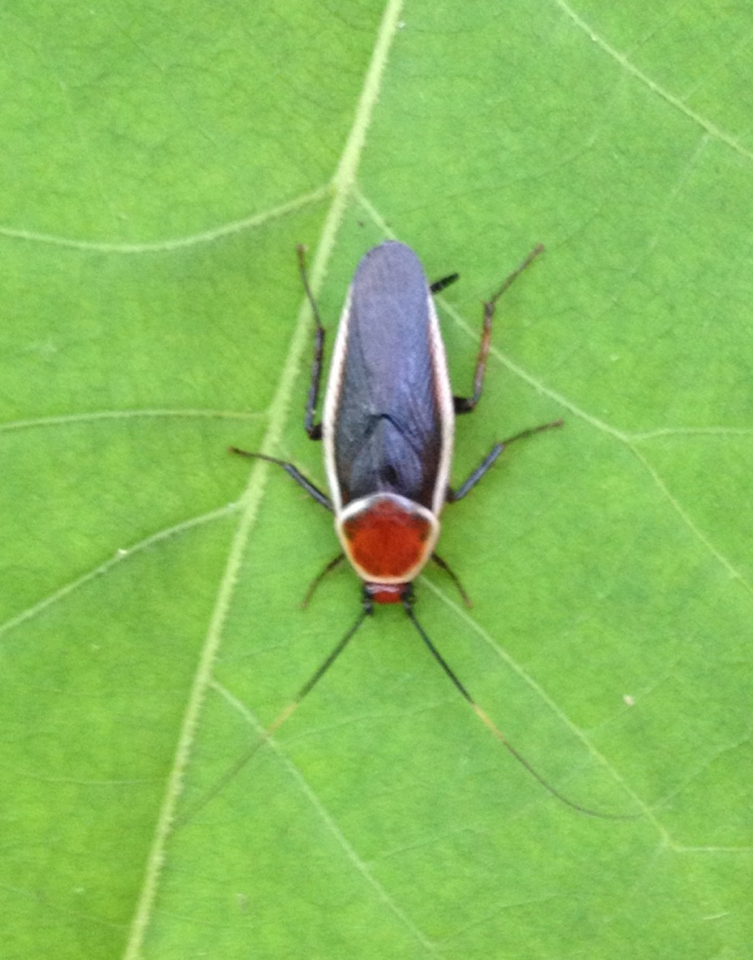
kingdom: Animalia
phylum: Arthropoda
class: Insecta
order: Blattodea
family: Ectobiidae
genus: Pseudomops
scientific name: Pseudomops septentrionalis
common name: Pale-bordered field cockroach
